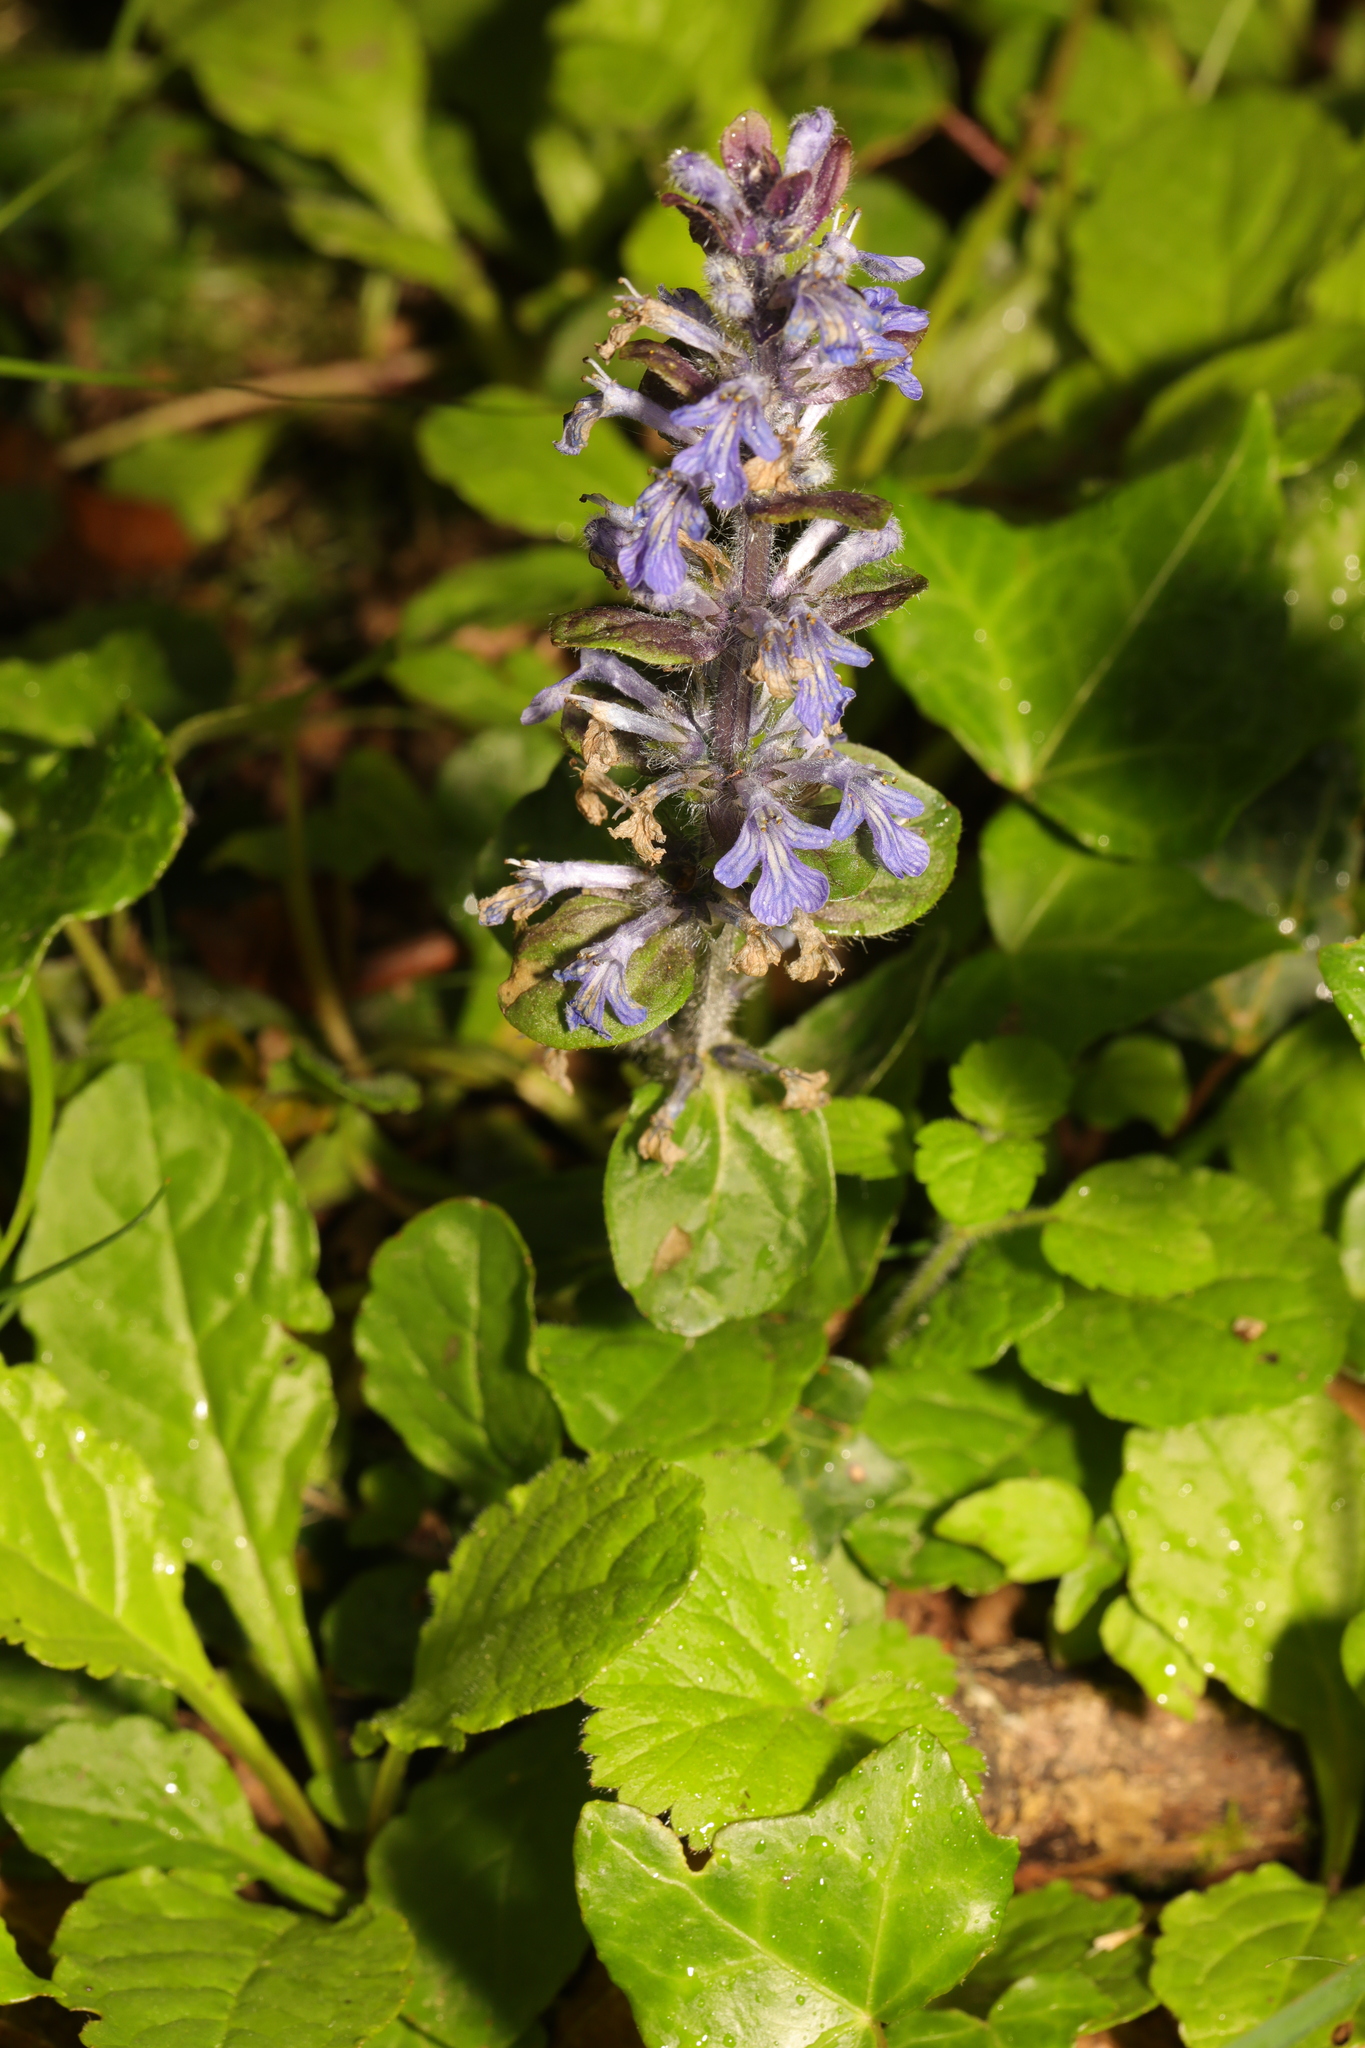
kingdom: Plantae
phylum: Tracheophyta
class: Magnoliopsida
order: Lamiales
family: Lamiaceae
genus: Ajuga
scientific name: Ajuga reptans
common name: Bugle
